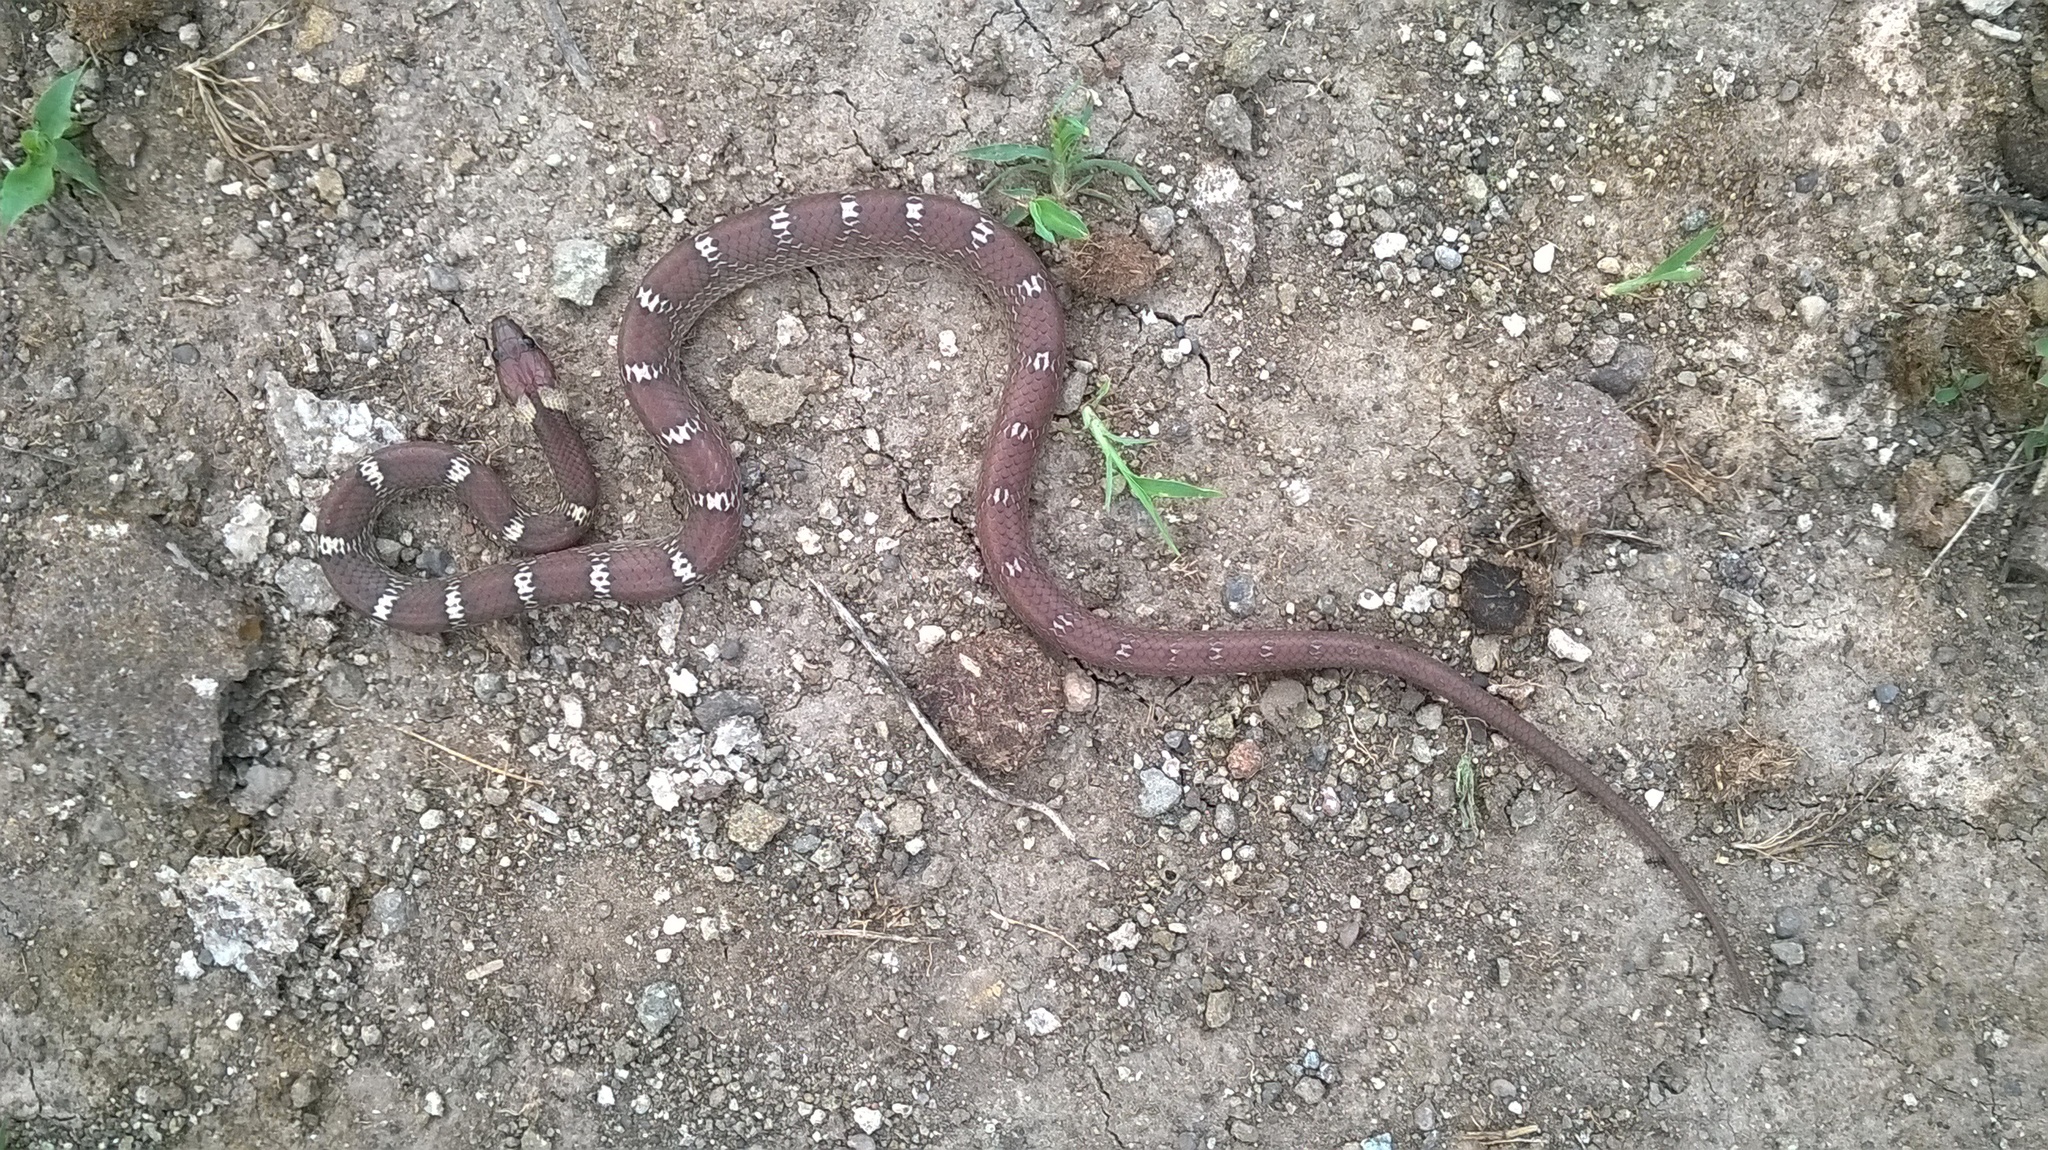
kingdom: Animalia
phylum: Chordata
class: Squamata
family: Colubridae
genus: Lycodon
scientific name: Lycodon aulicus
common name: Common wolf snake
